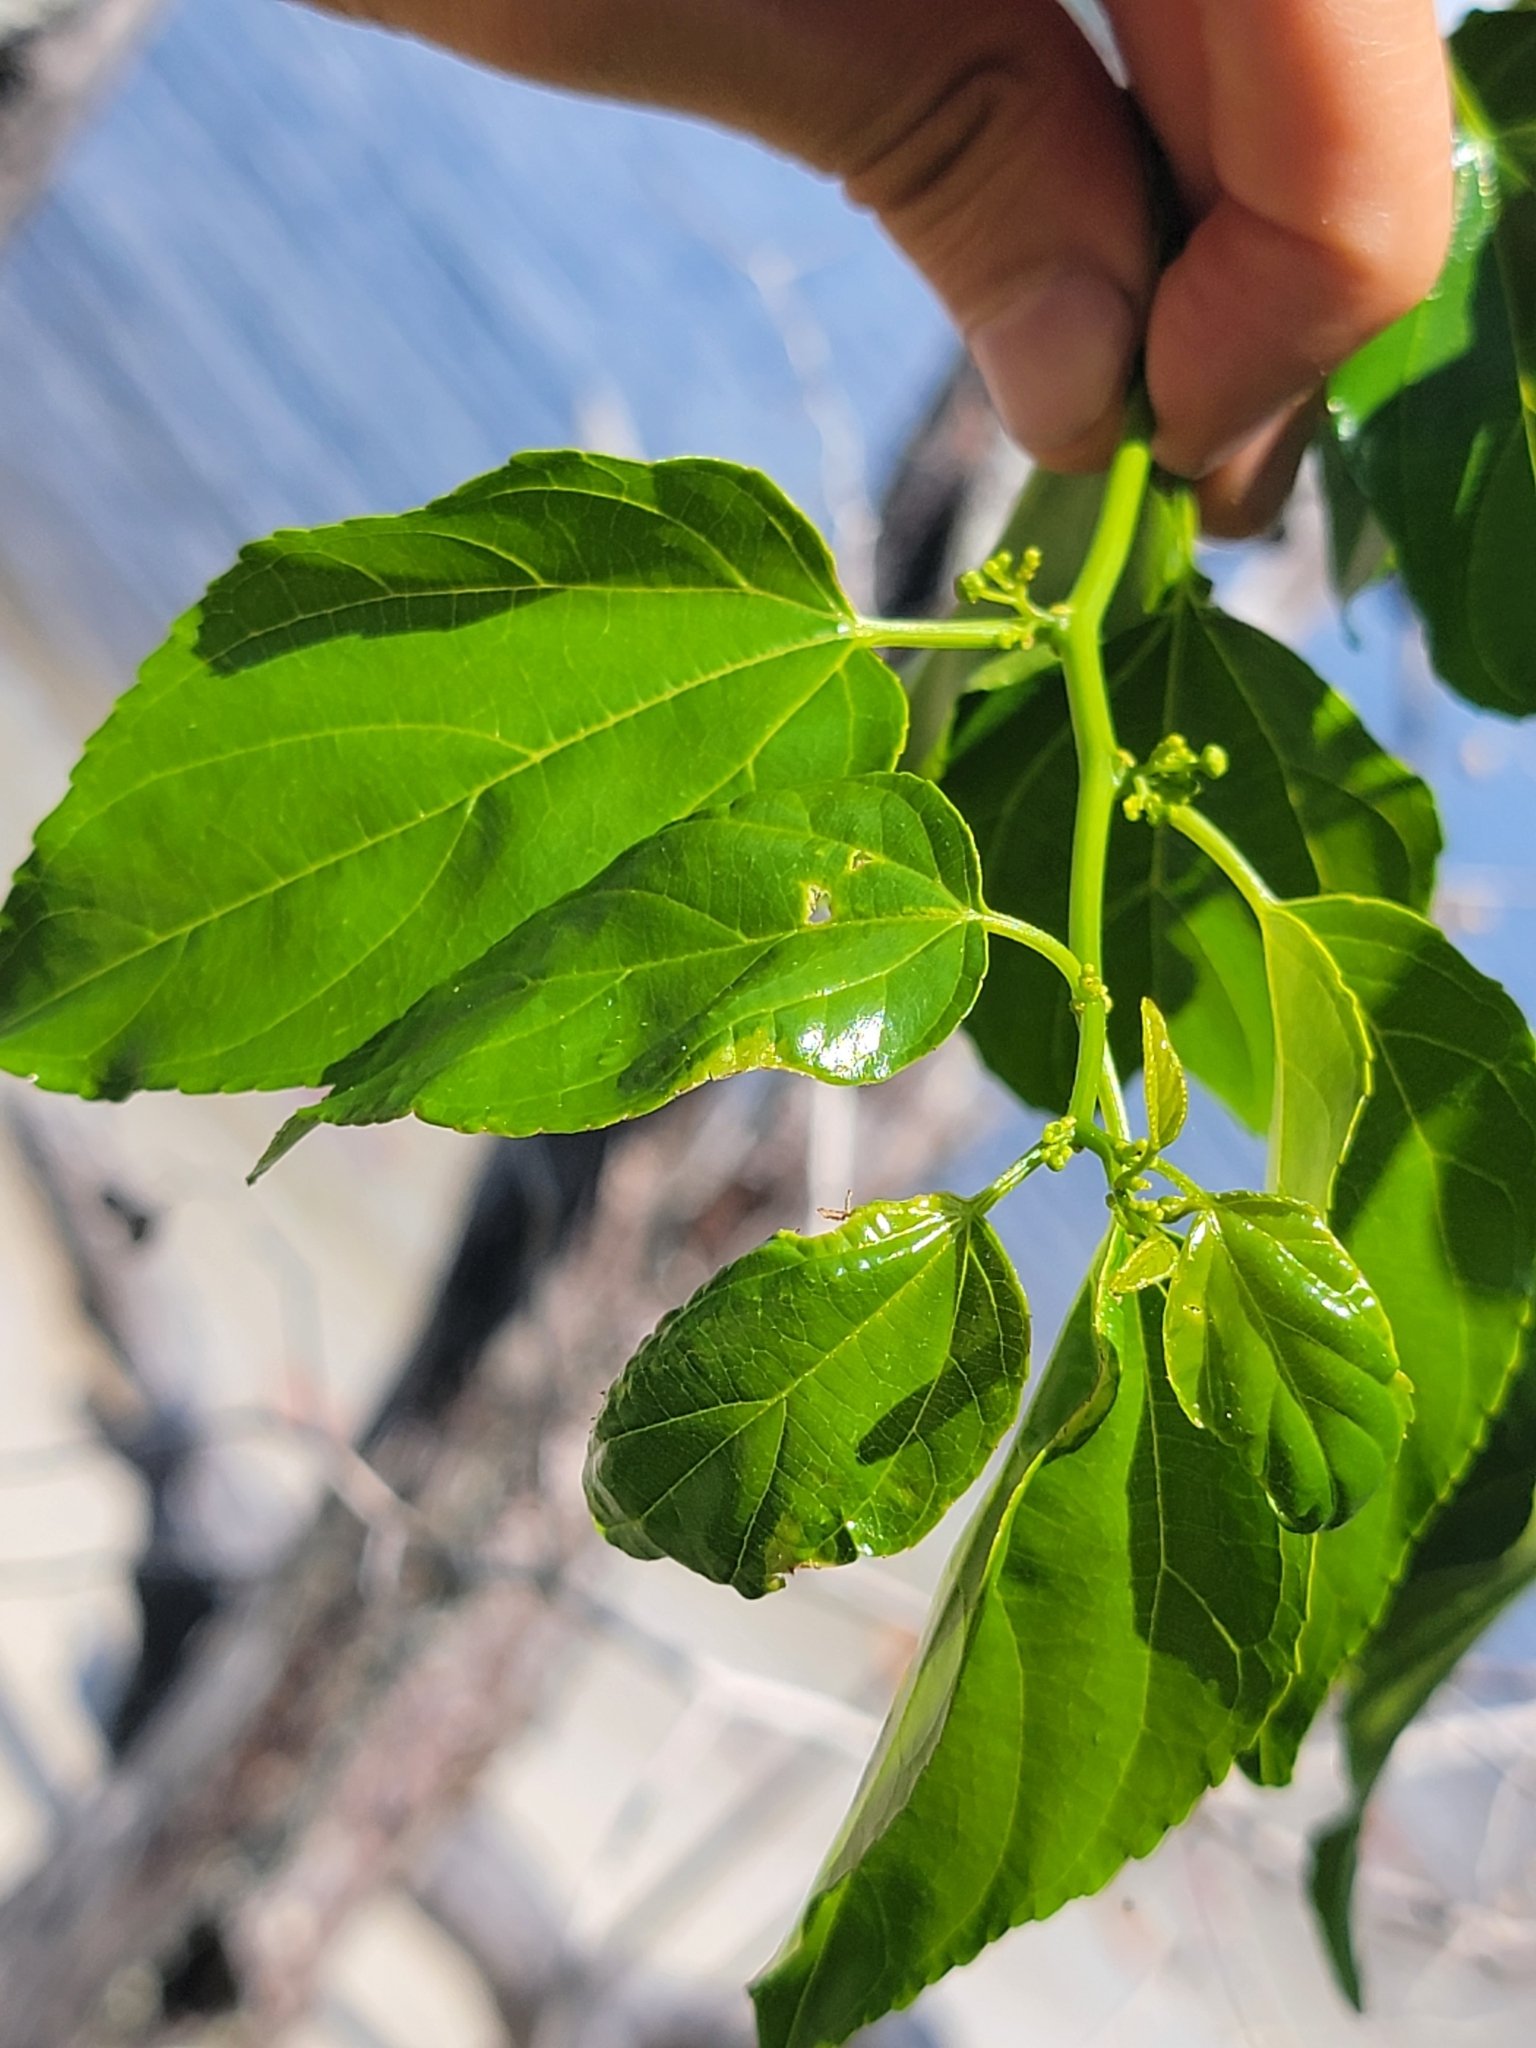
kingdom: Plantae
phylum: Tracheophyta
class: Magnoliopsida
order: Rosales
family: Rhamnaceae
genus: Colubrina
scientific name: Colubrina asiatica
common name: Asian nakedwood
